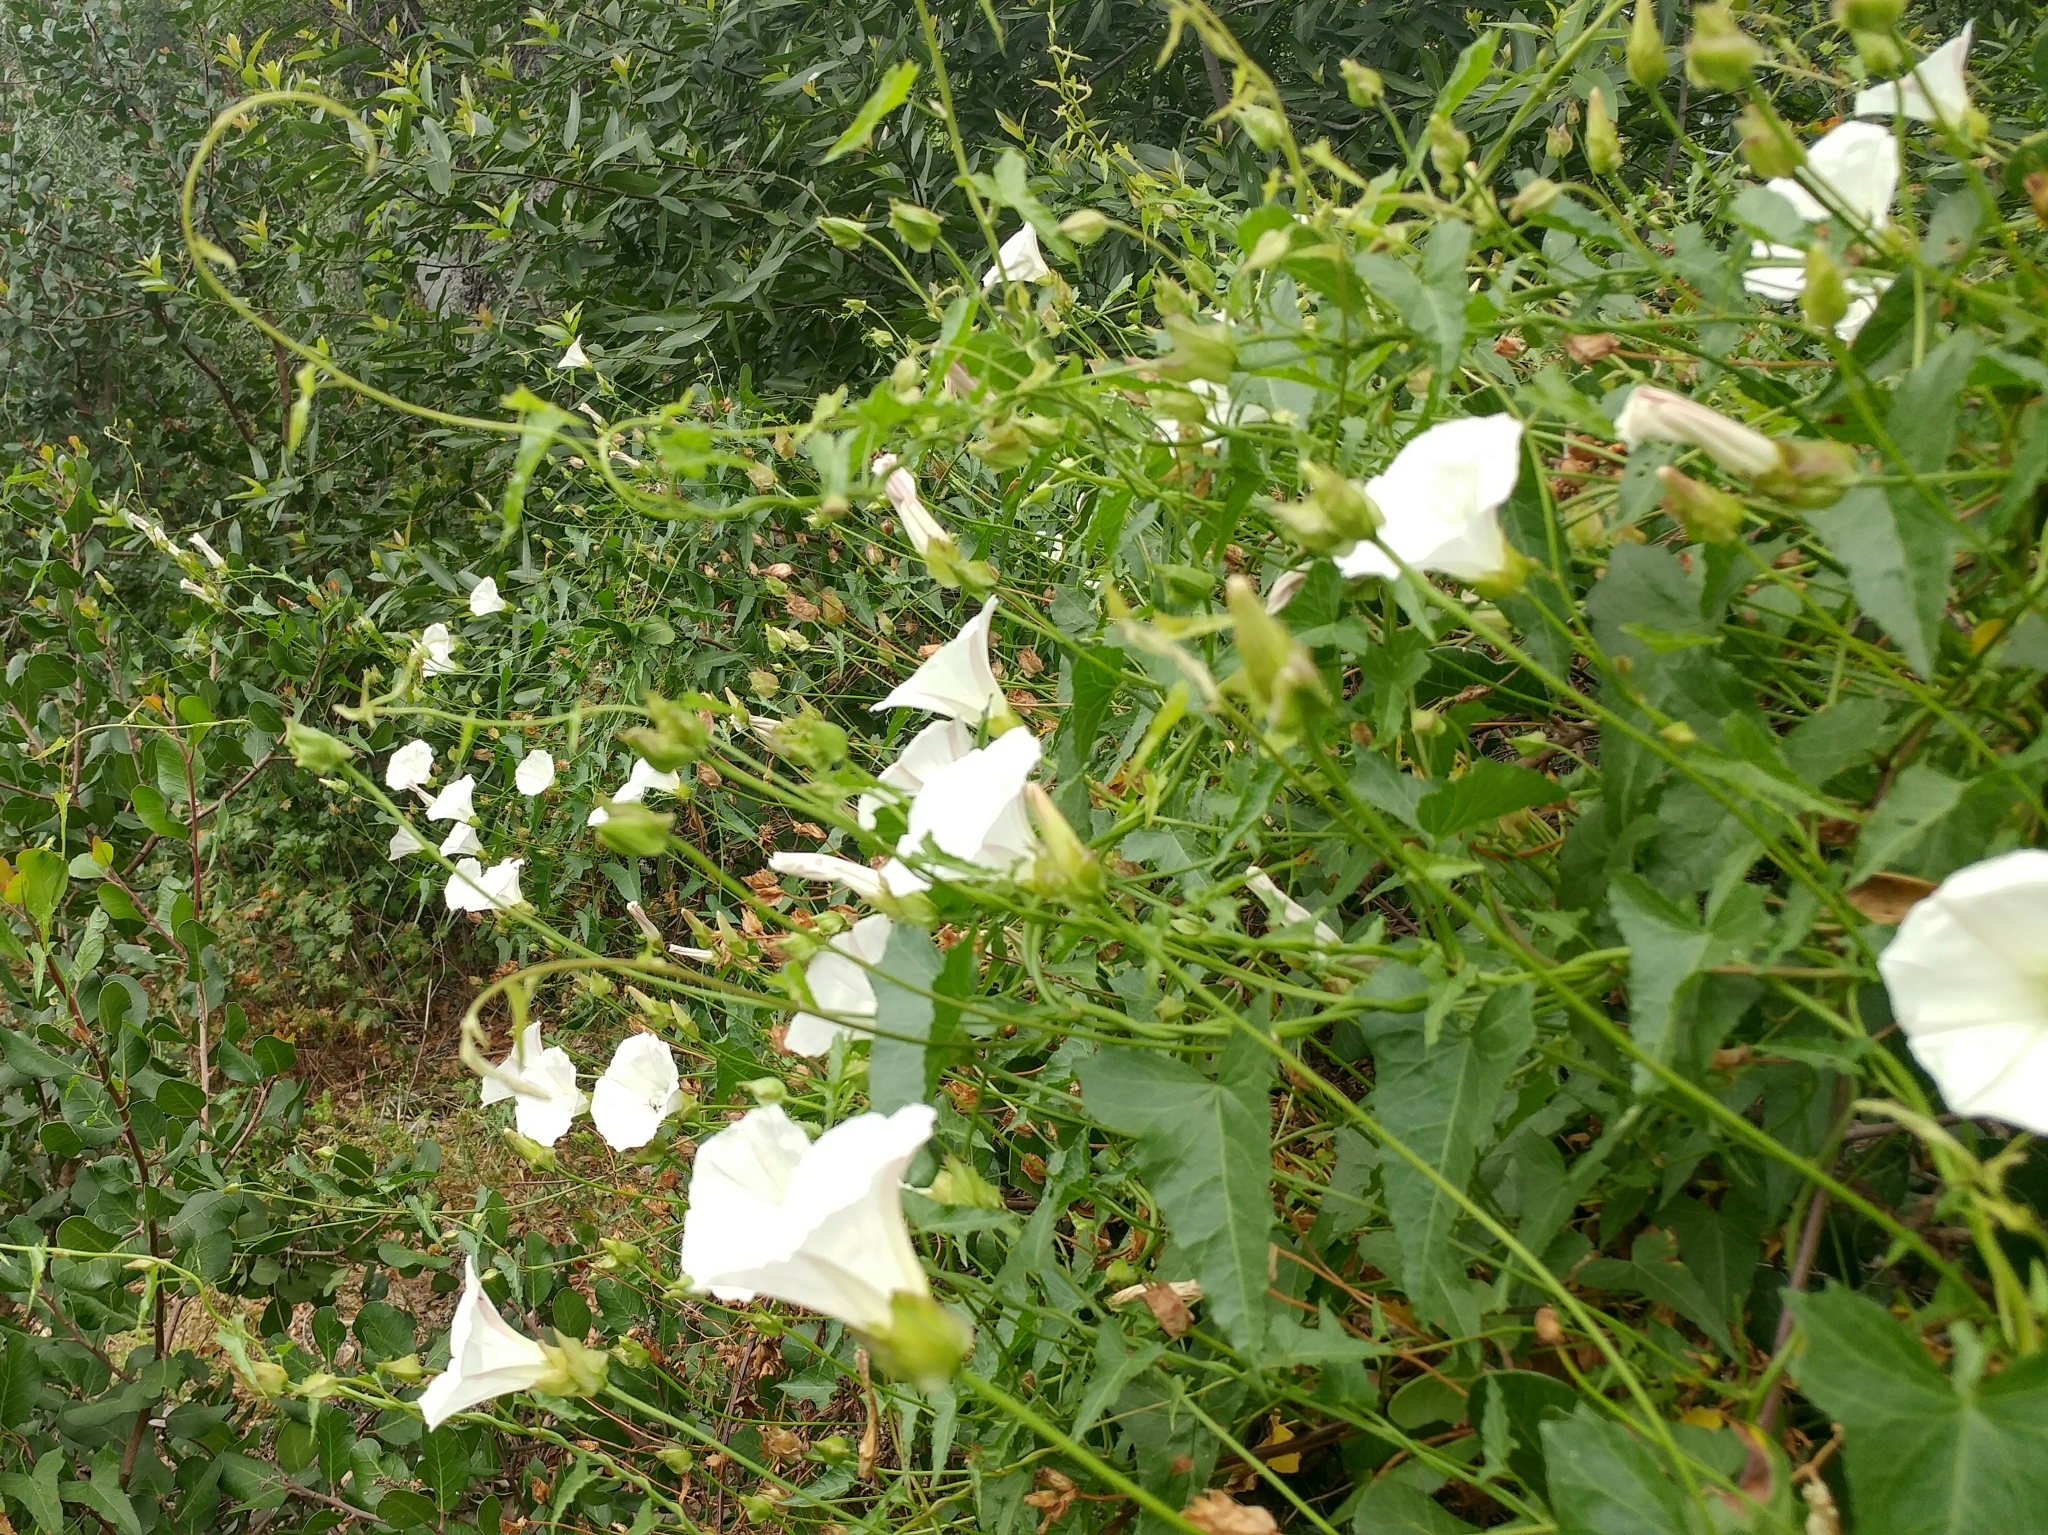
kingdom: Plantae
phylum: Tracheophyta
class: Magnoliopsida
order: Solanales
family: Convolvulaceae
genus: Calystegia
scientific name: Calystegia macrostegia
